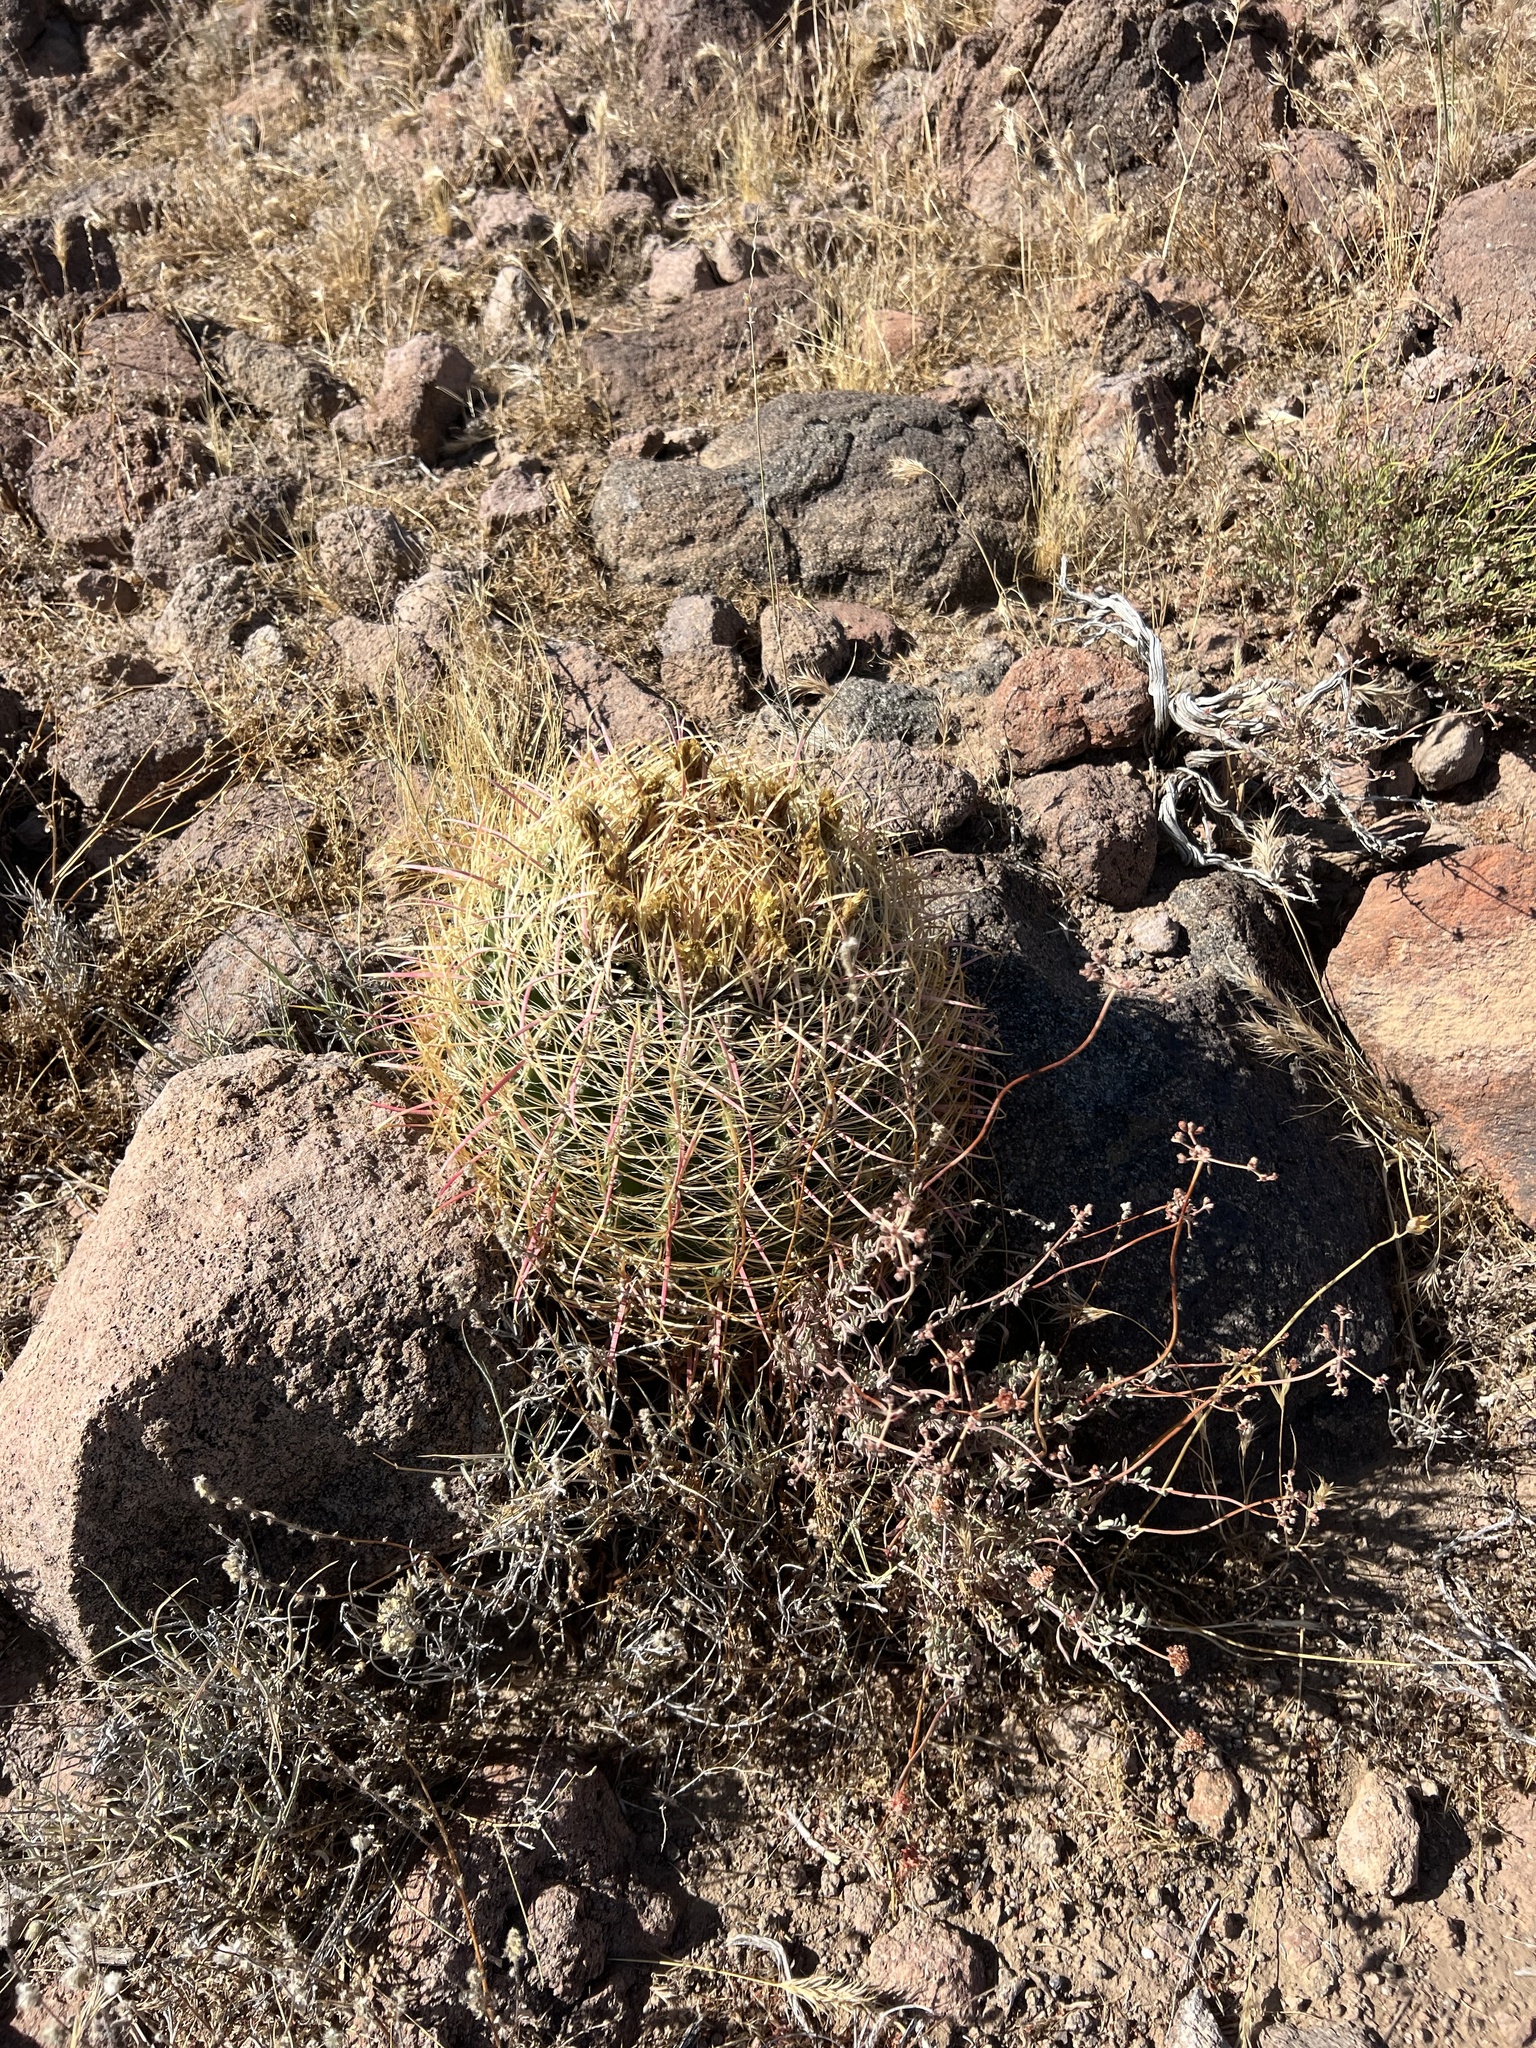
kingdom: Plantae
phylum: Tracheophyta
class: Magnoliopsida
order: Caryophyllales
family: Cactaceae
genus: Ferocactus
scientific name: Ferocactus cylindraceus
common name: California barrel cactus
